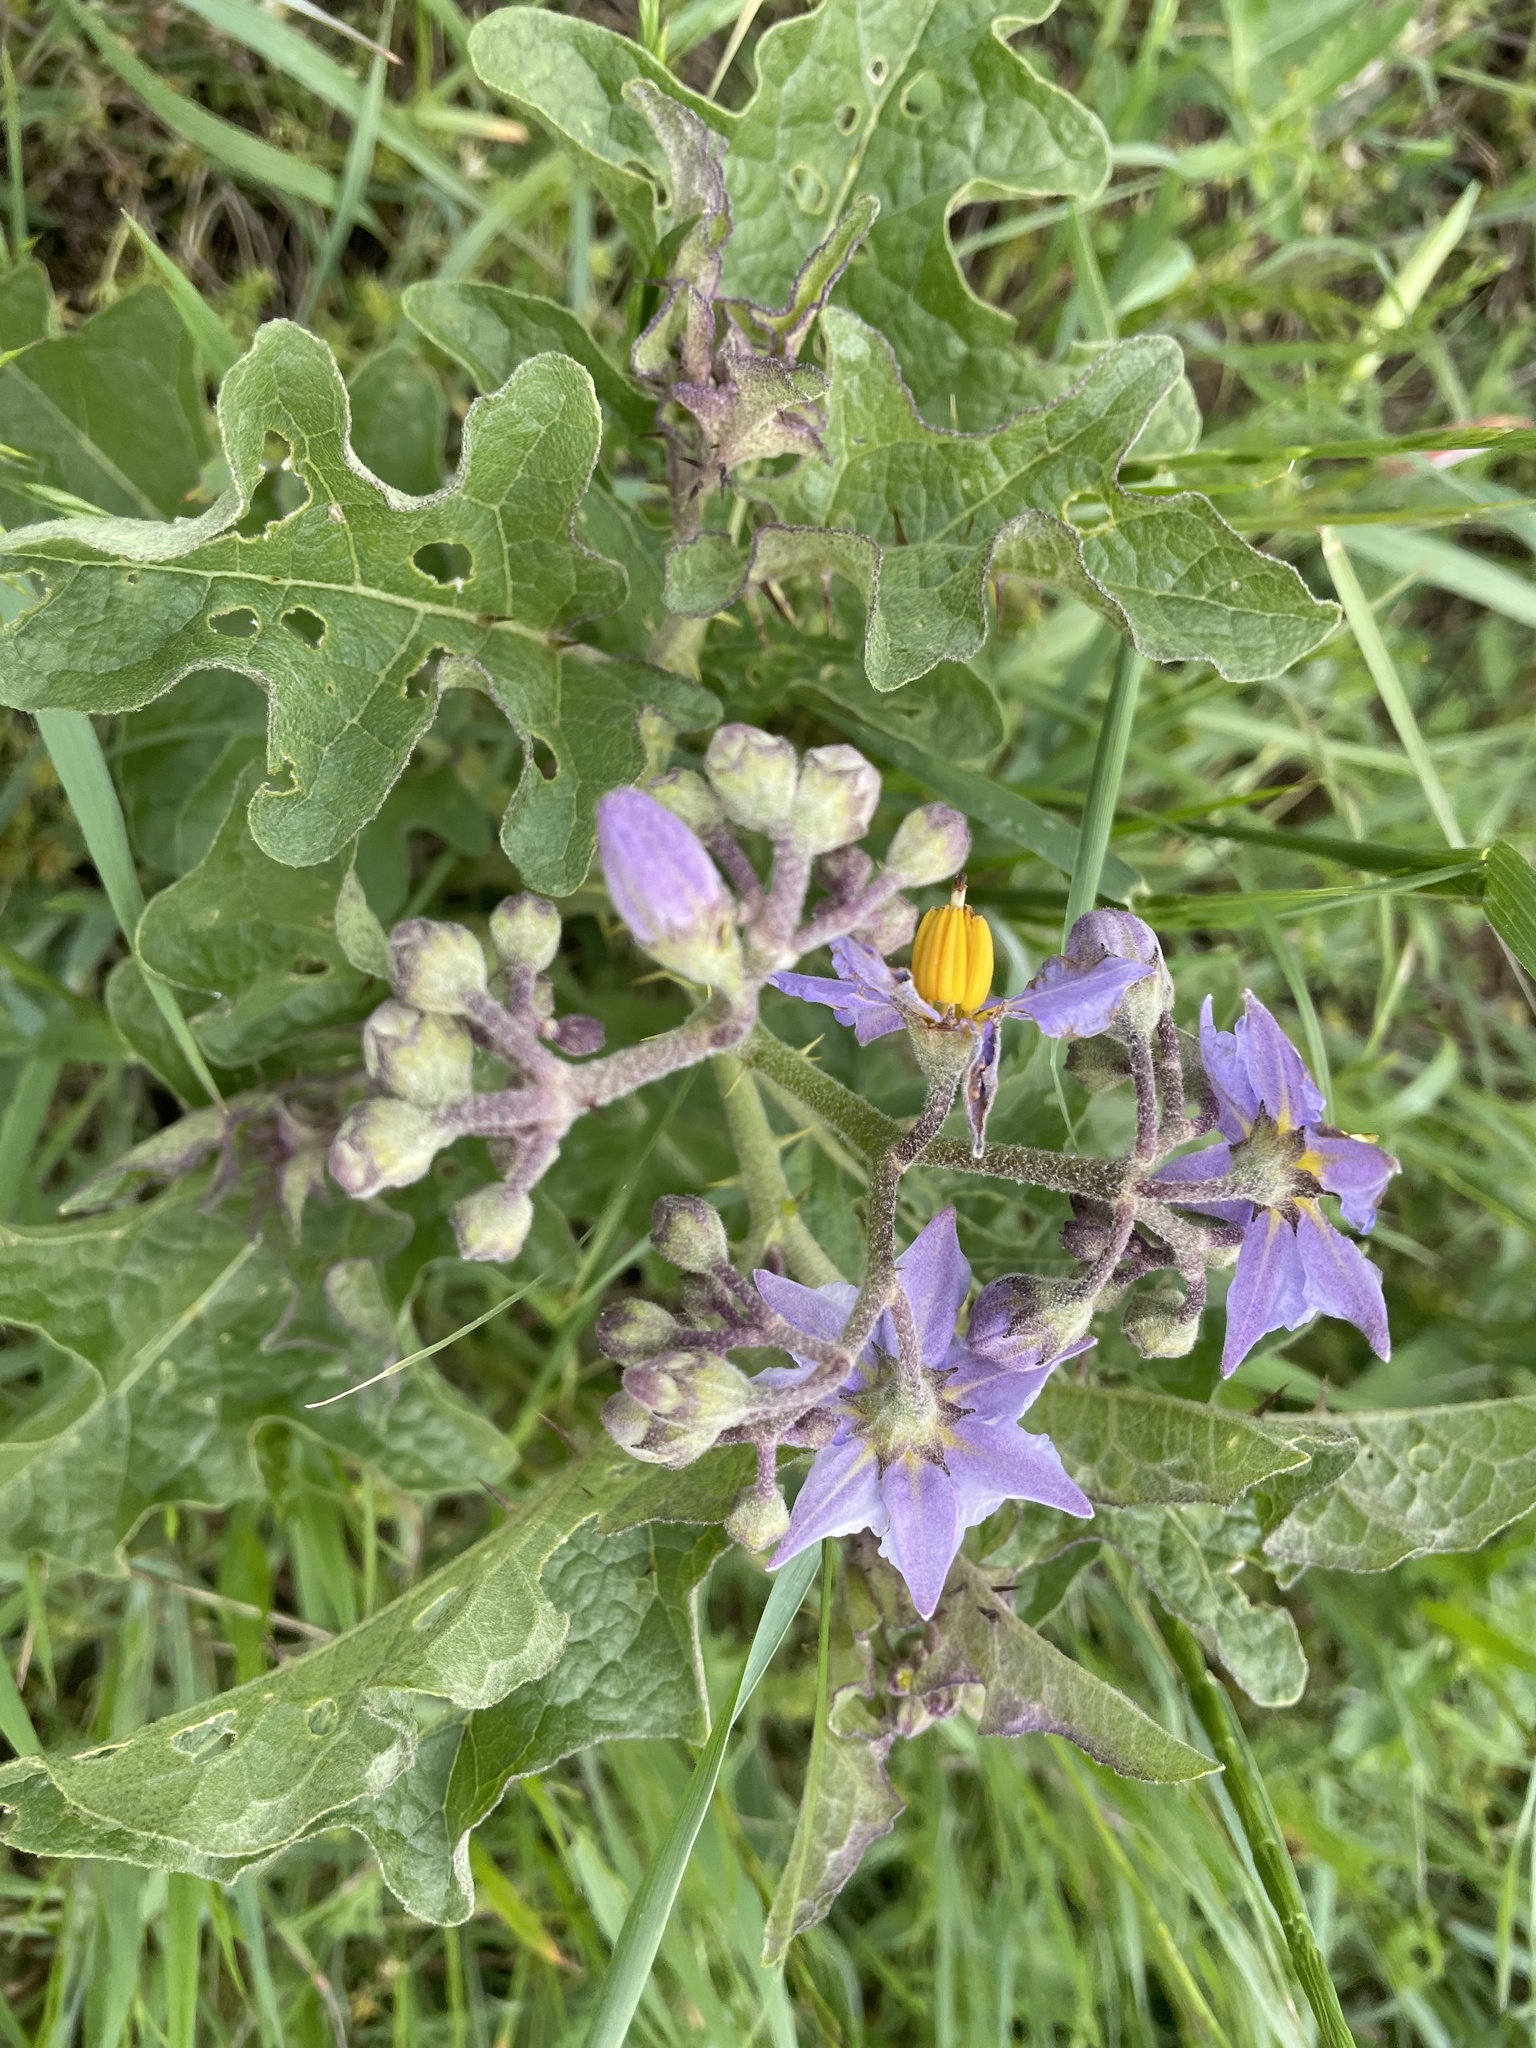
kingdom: Plantae
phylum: Tracheophyta
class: Magnoliopsida
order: Solanales
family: Solanaceae
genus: Solanum
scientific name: Solanum dimidiatum
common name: Carolina horse-nettle
